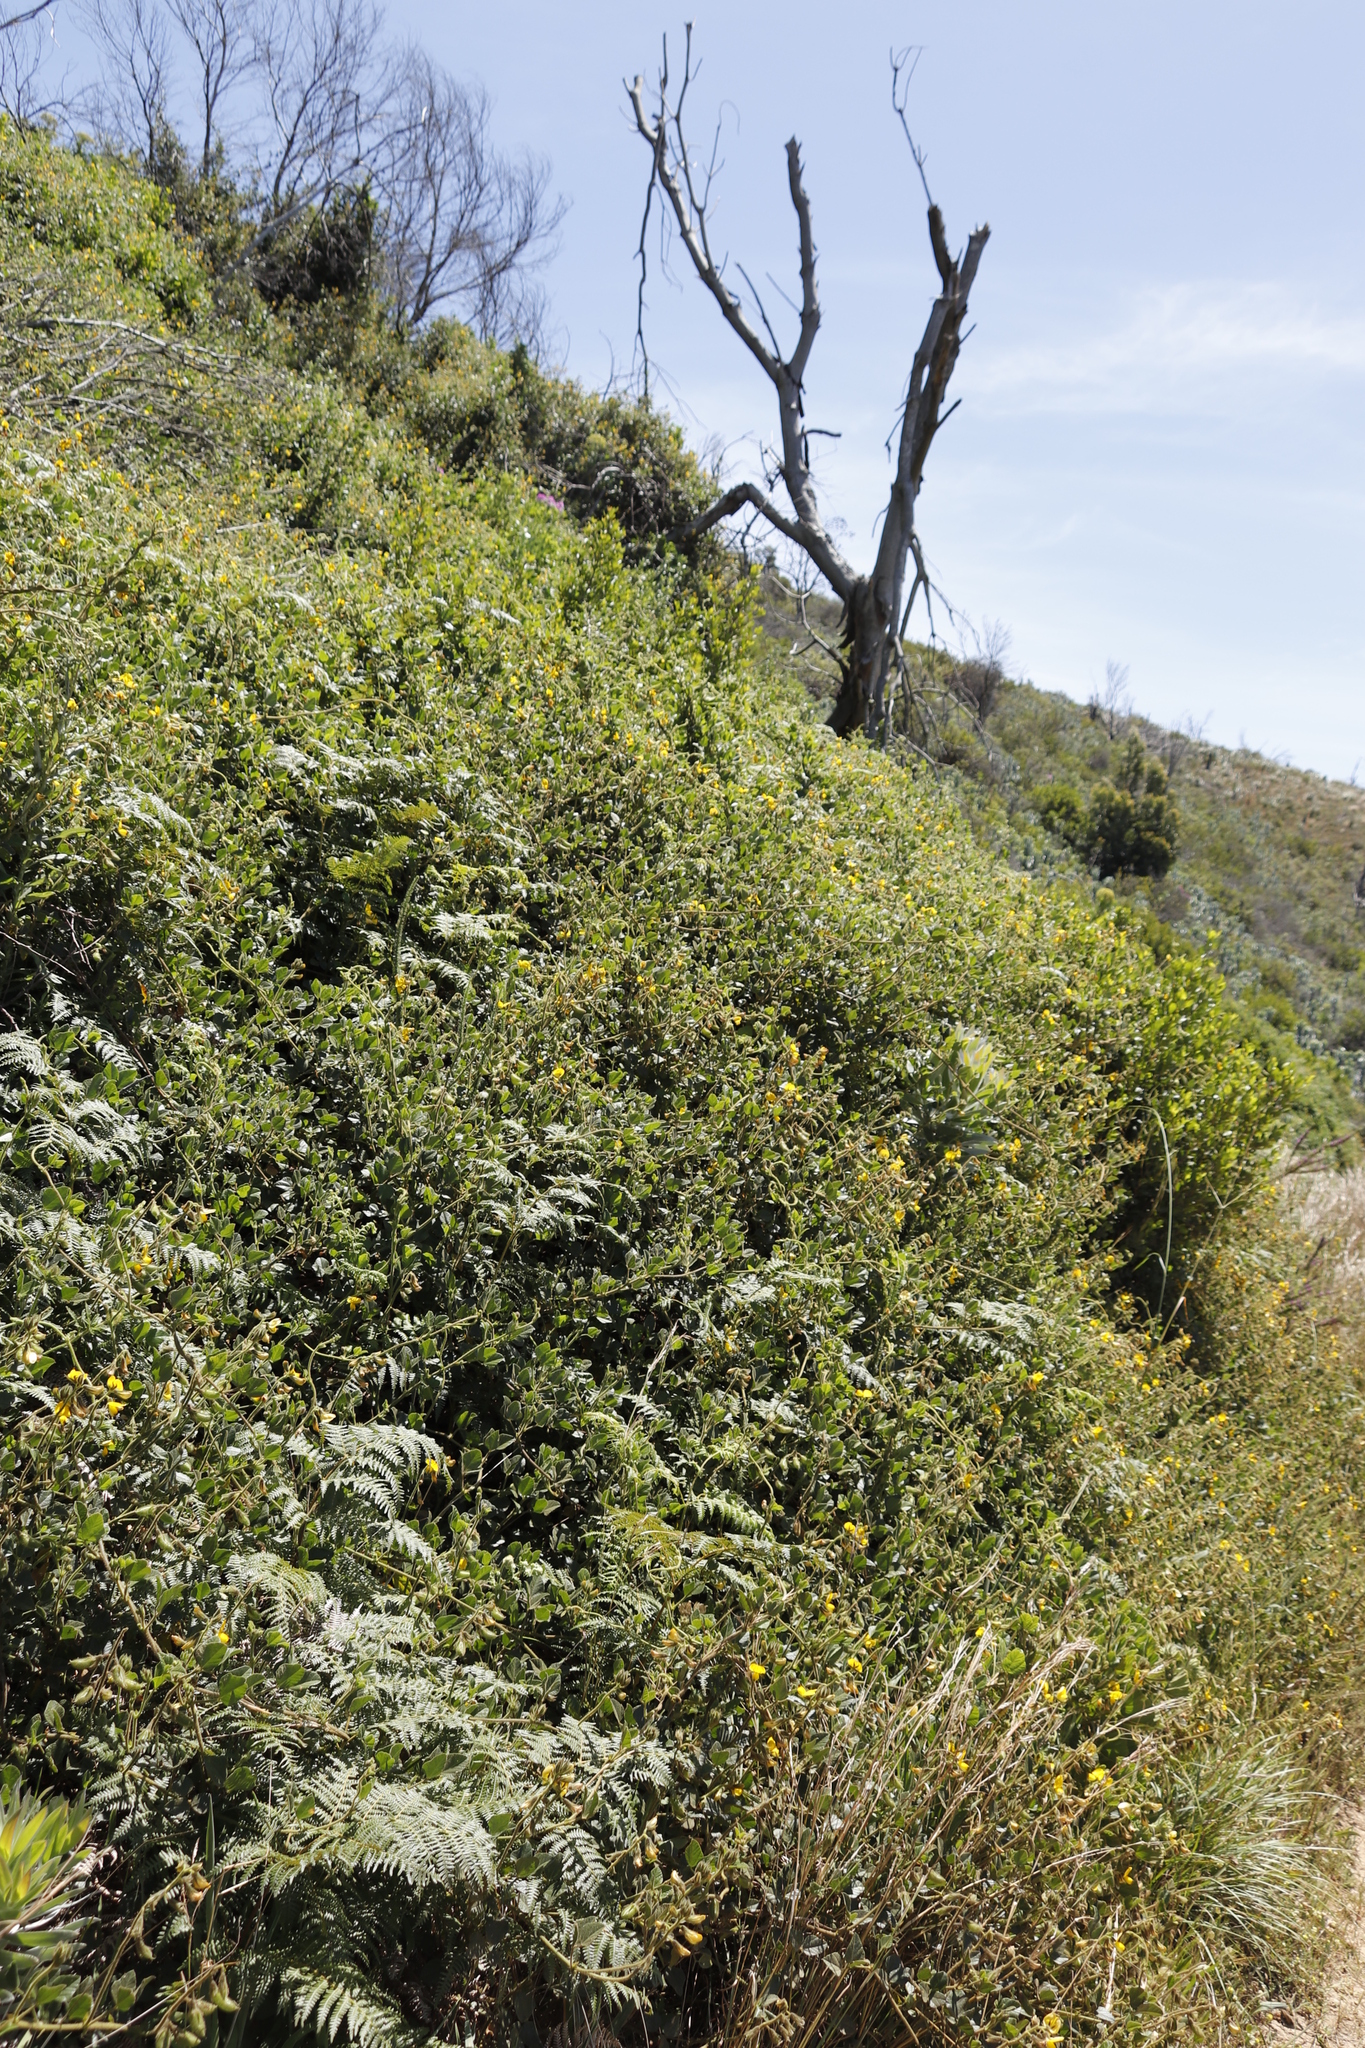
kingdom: Plantae
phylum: Tracheophyta
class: Magnoliopsida
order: Fabales
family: Fabaceae
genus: Bolusafra
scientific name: Bolusafra bituminosa
